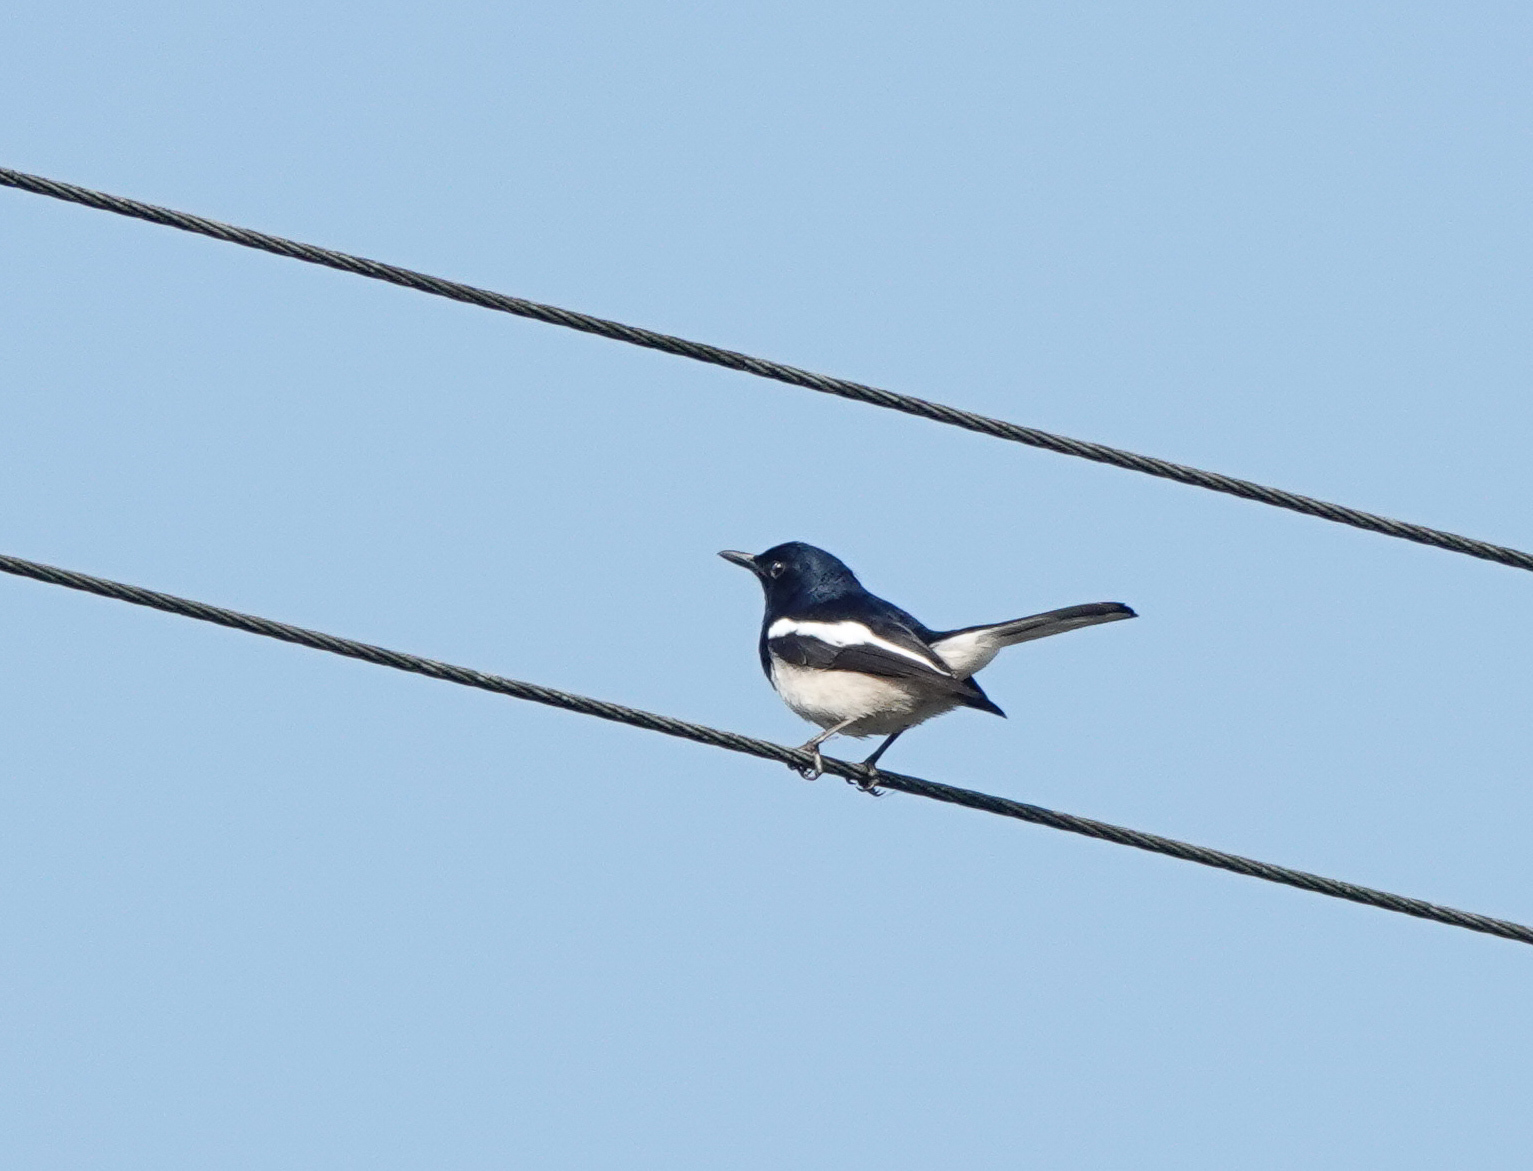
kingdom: Animalia
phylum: Chordata
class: Aves
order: Passeriformes
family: Muscicapidae
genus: Copsychus
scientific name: Copsychus saularis
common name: Oriental magpie-robin
